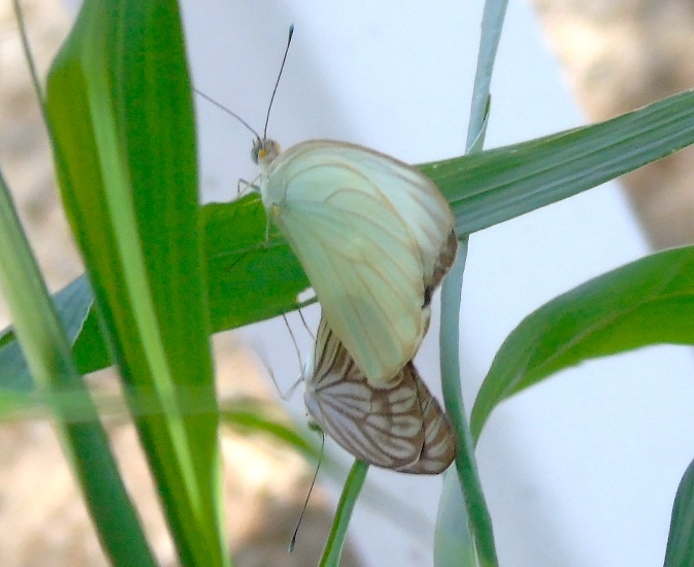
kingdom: Animalia
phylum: Arthropoda
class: Insecta
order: Lepidoptera
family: Pieridae
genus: Ascia
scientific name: Ascia monuste
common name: Great southern white
